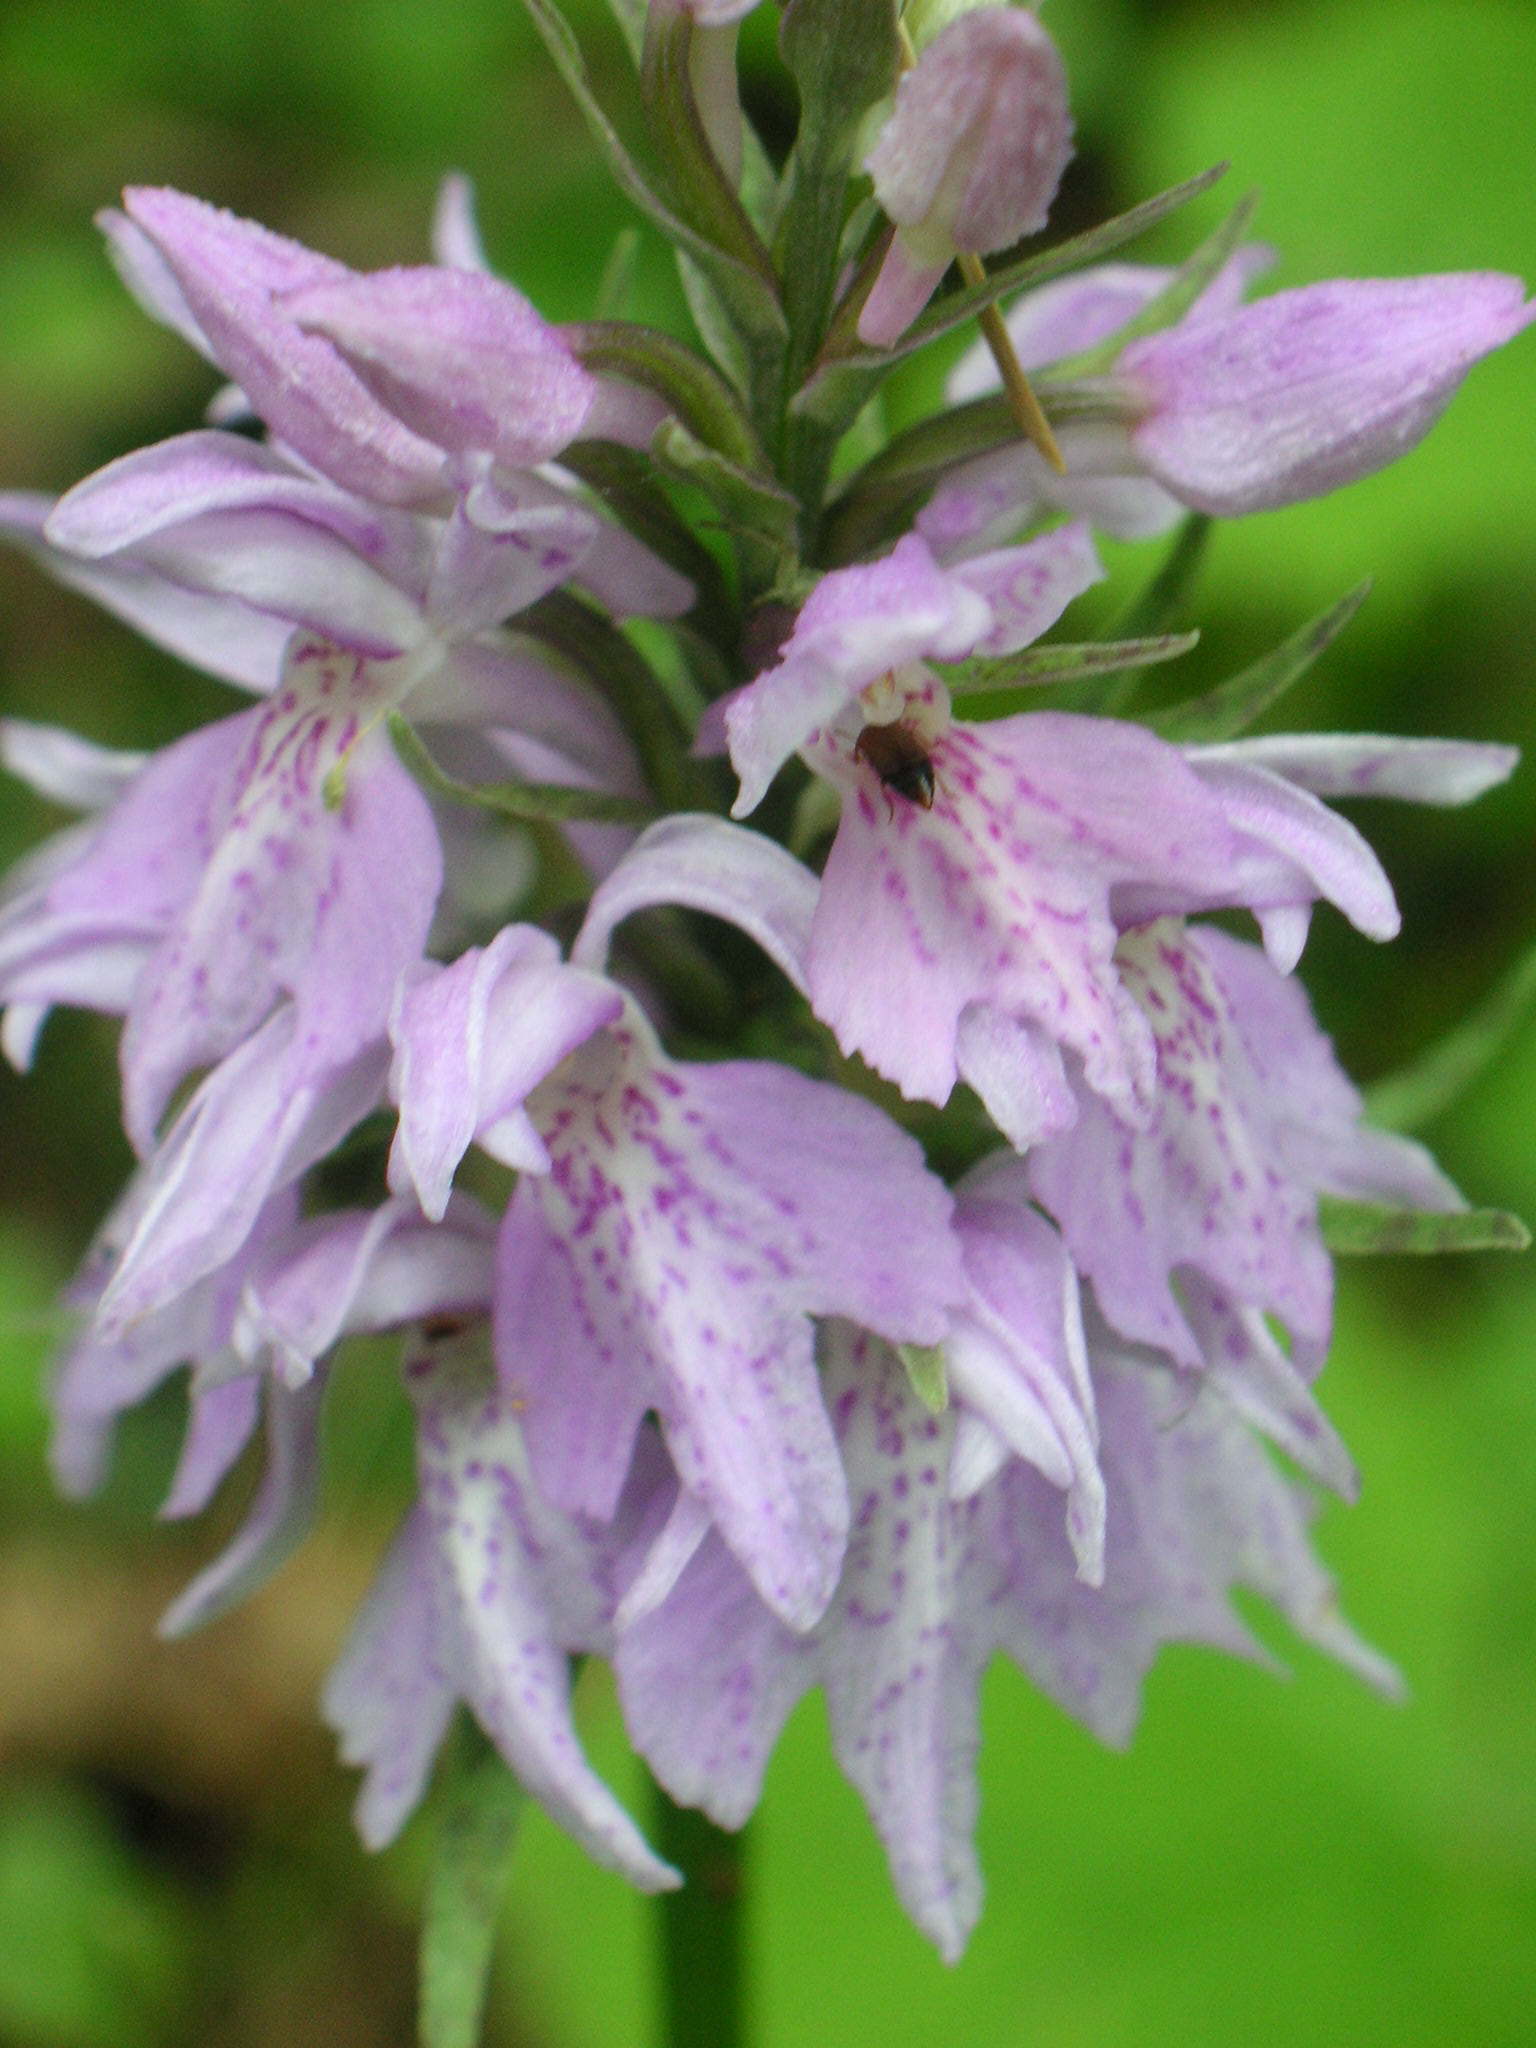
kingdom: Plantae
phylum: Tracheophyta
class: Liliopsida
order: Asparagales
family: Orchidaceae
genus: Dactylorhiza
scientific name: Dactylorhiza maculata
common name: Heath spotted-orchid
